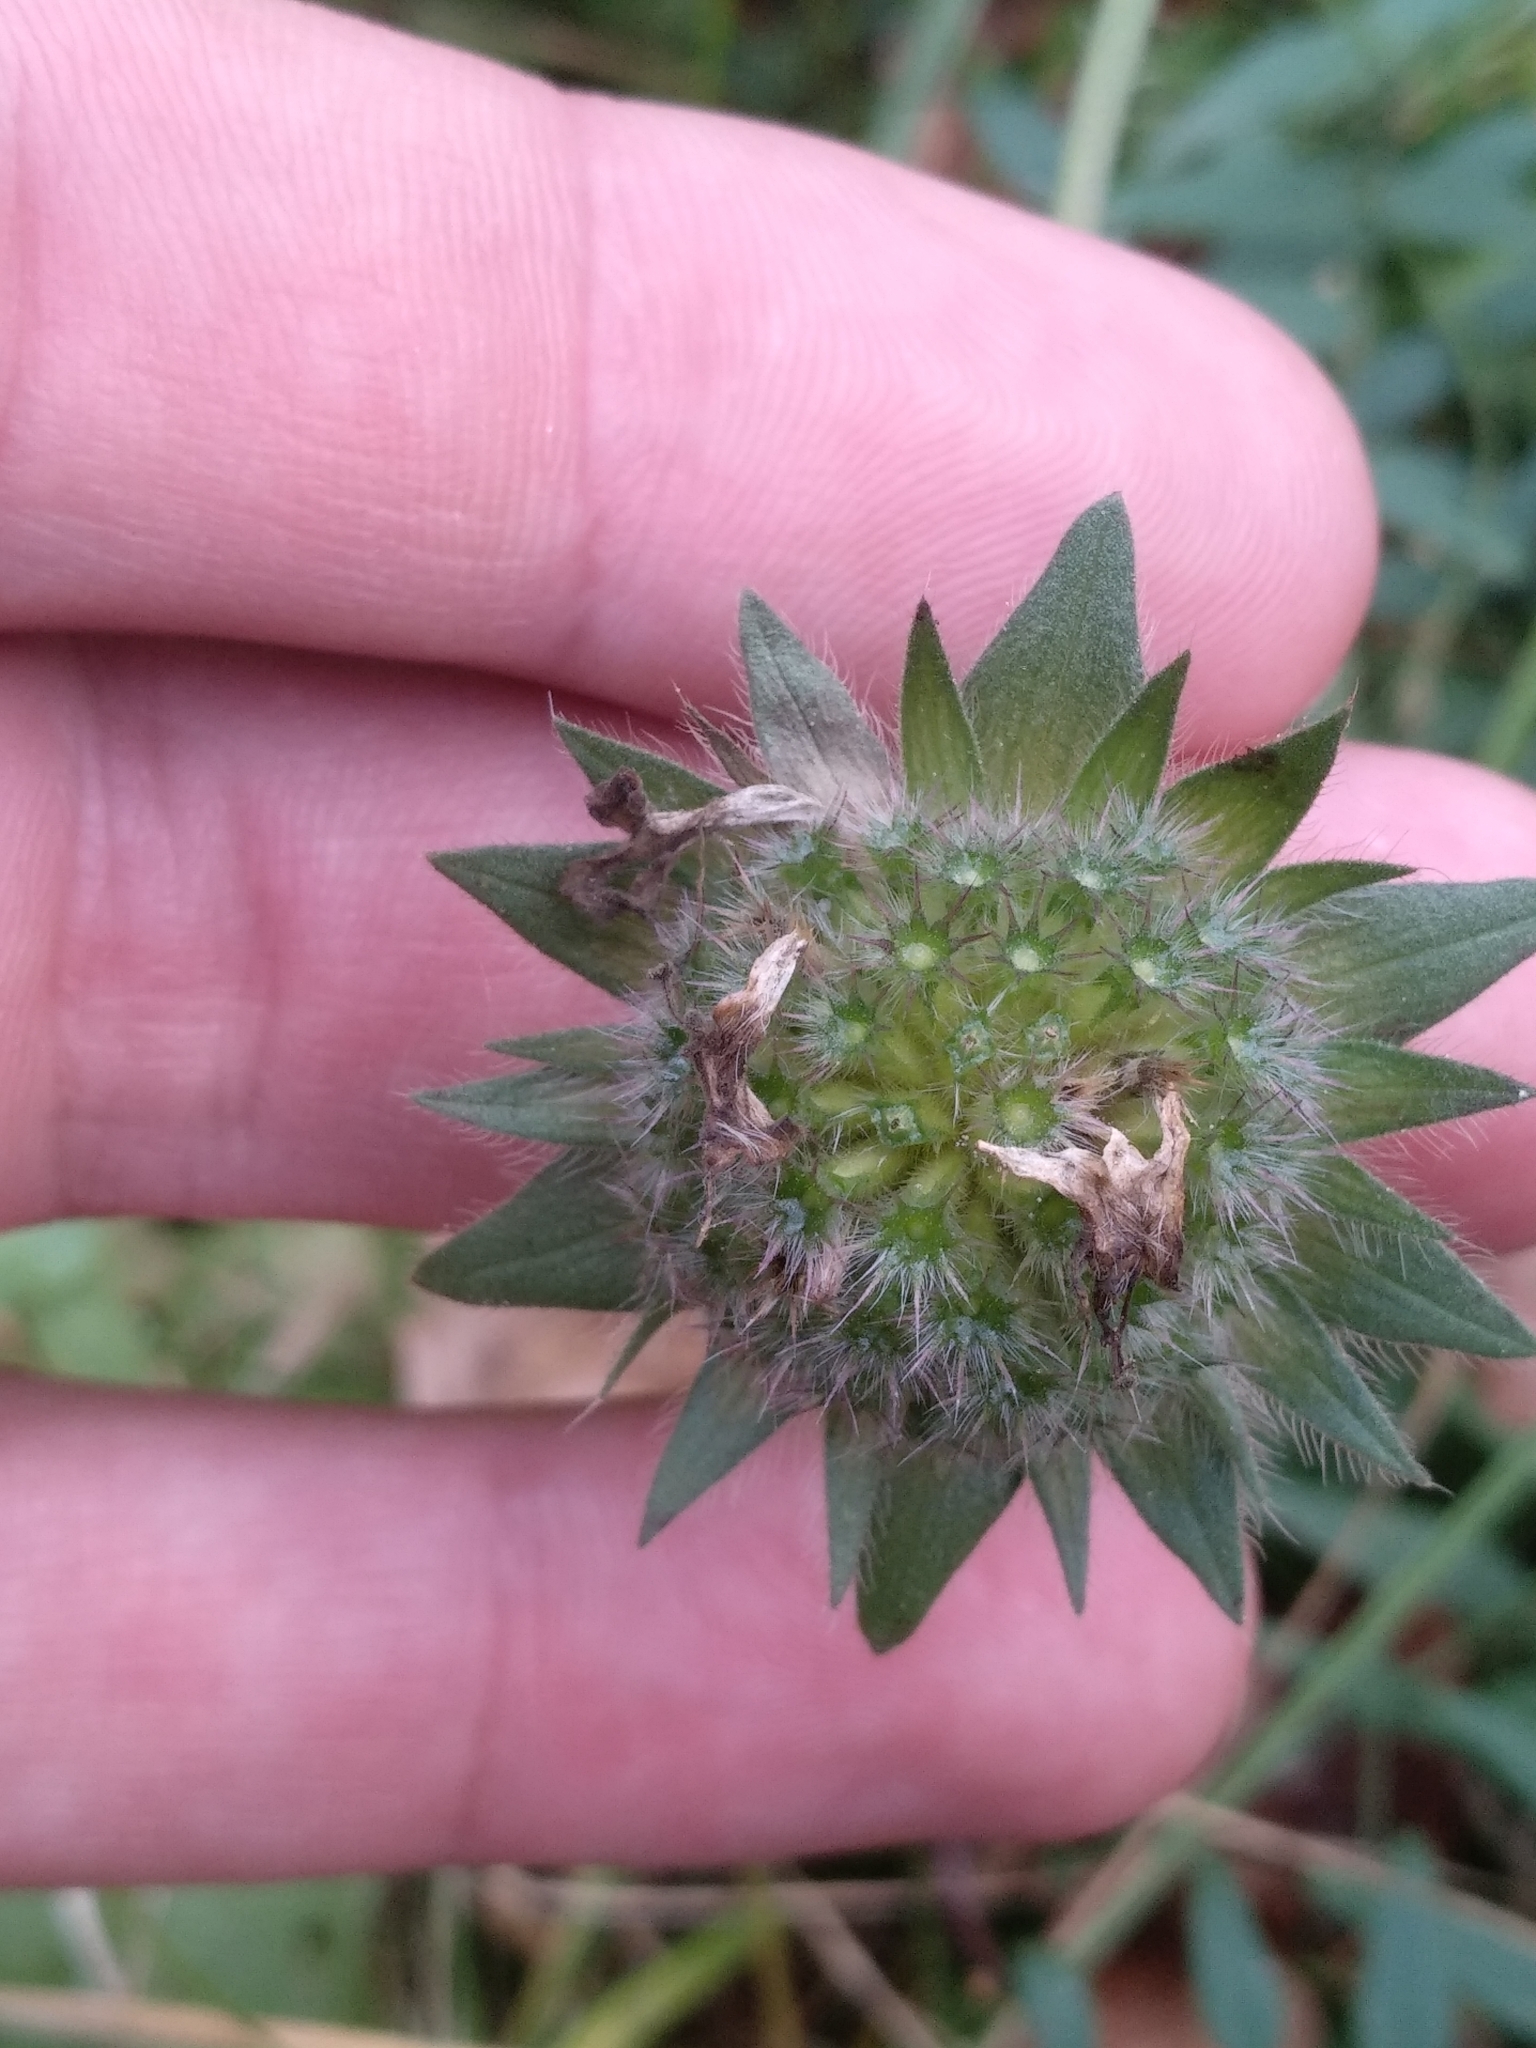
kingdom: Plantae
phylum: Tracheophyta
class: Magnoliopsida
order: Dipsacales
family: Caprifoliaceae
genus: Knautia
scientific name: Knautia arvensis
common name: Field scabiosa
